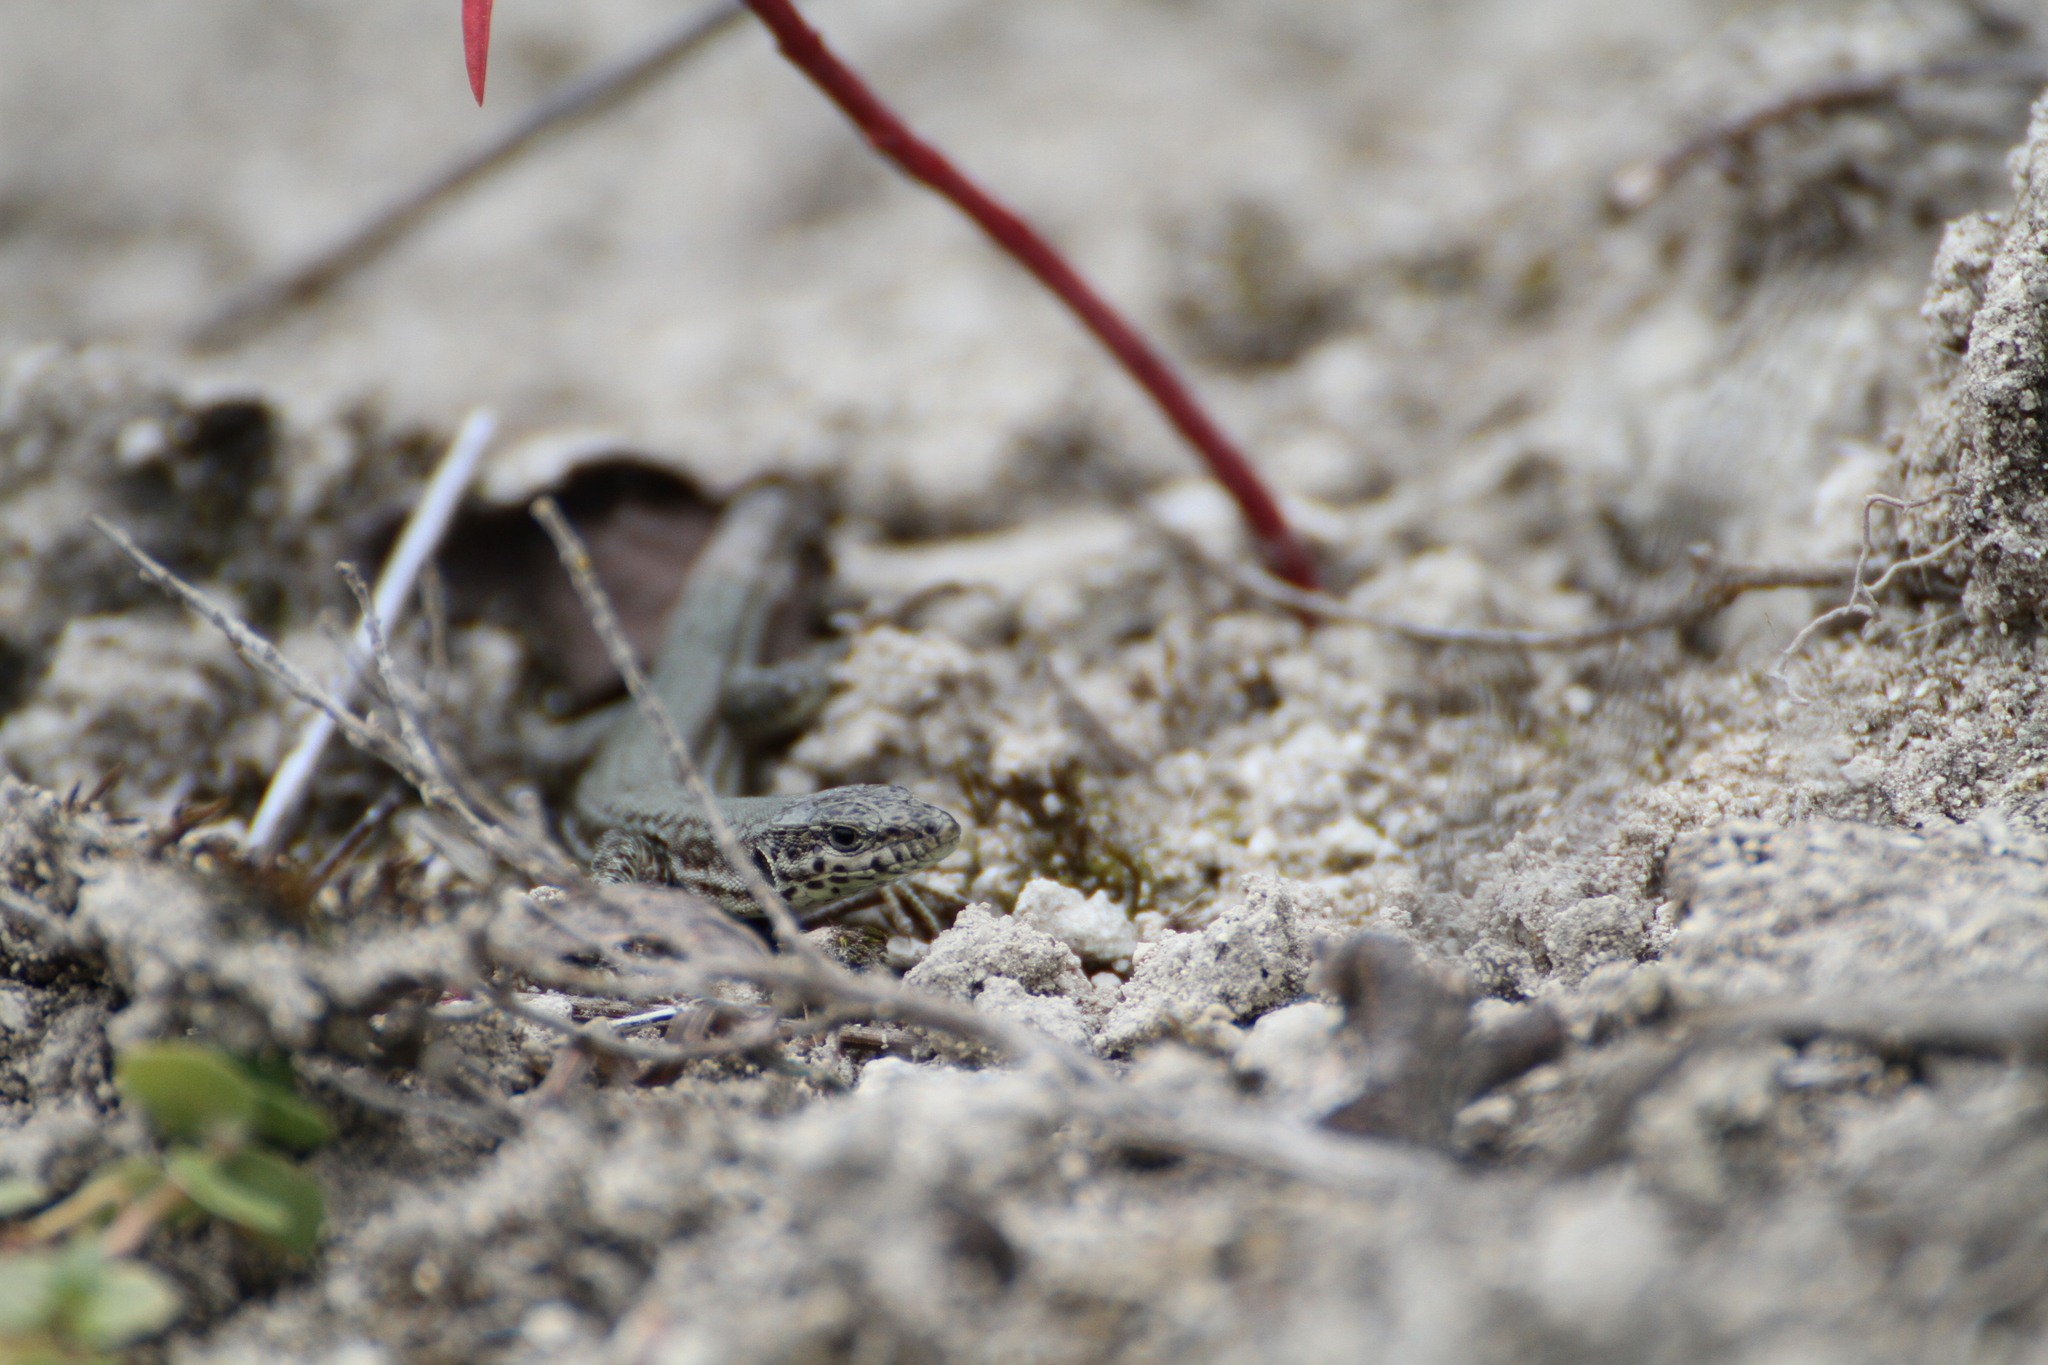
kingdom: Animalia
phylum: Chordata
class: Squamata
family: Lacertidae
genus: Podarcis
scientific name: Podarcis liolepis
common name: Catalonian wall lizard
